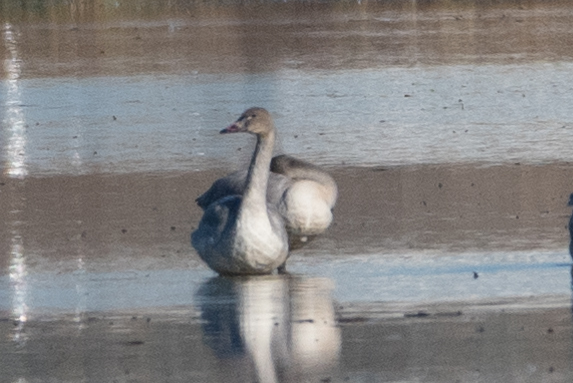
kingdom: Animalia
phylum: Chordata
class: Aves
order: Anseriformes
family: Anatidae
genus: Cygnus
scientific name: Cygnus columbianus
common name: Tundra swan
